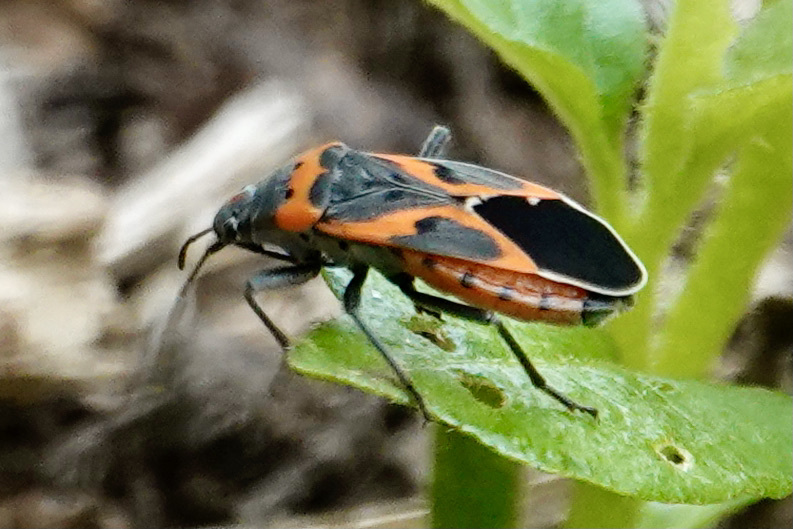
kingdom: Animalia
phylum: Arthropoda
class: Insecta
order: Hemiptera
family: Lygaeidae
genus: Lygaeus
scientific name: Lygaeus kalmii
